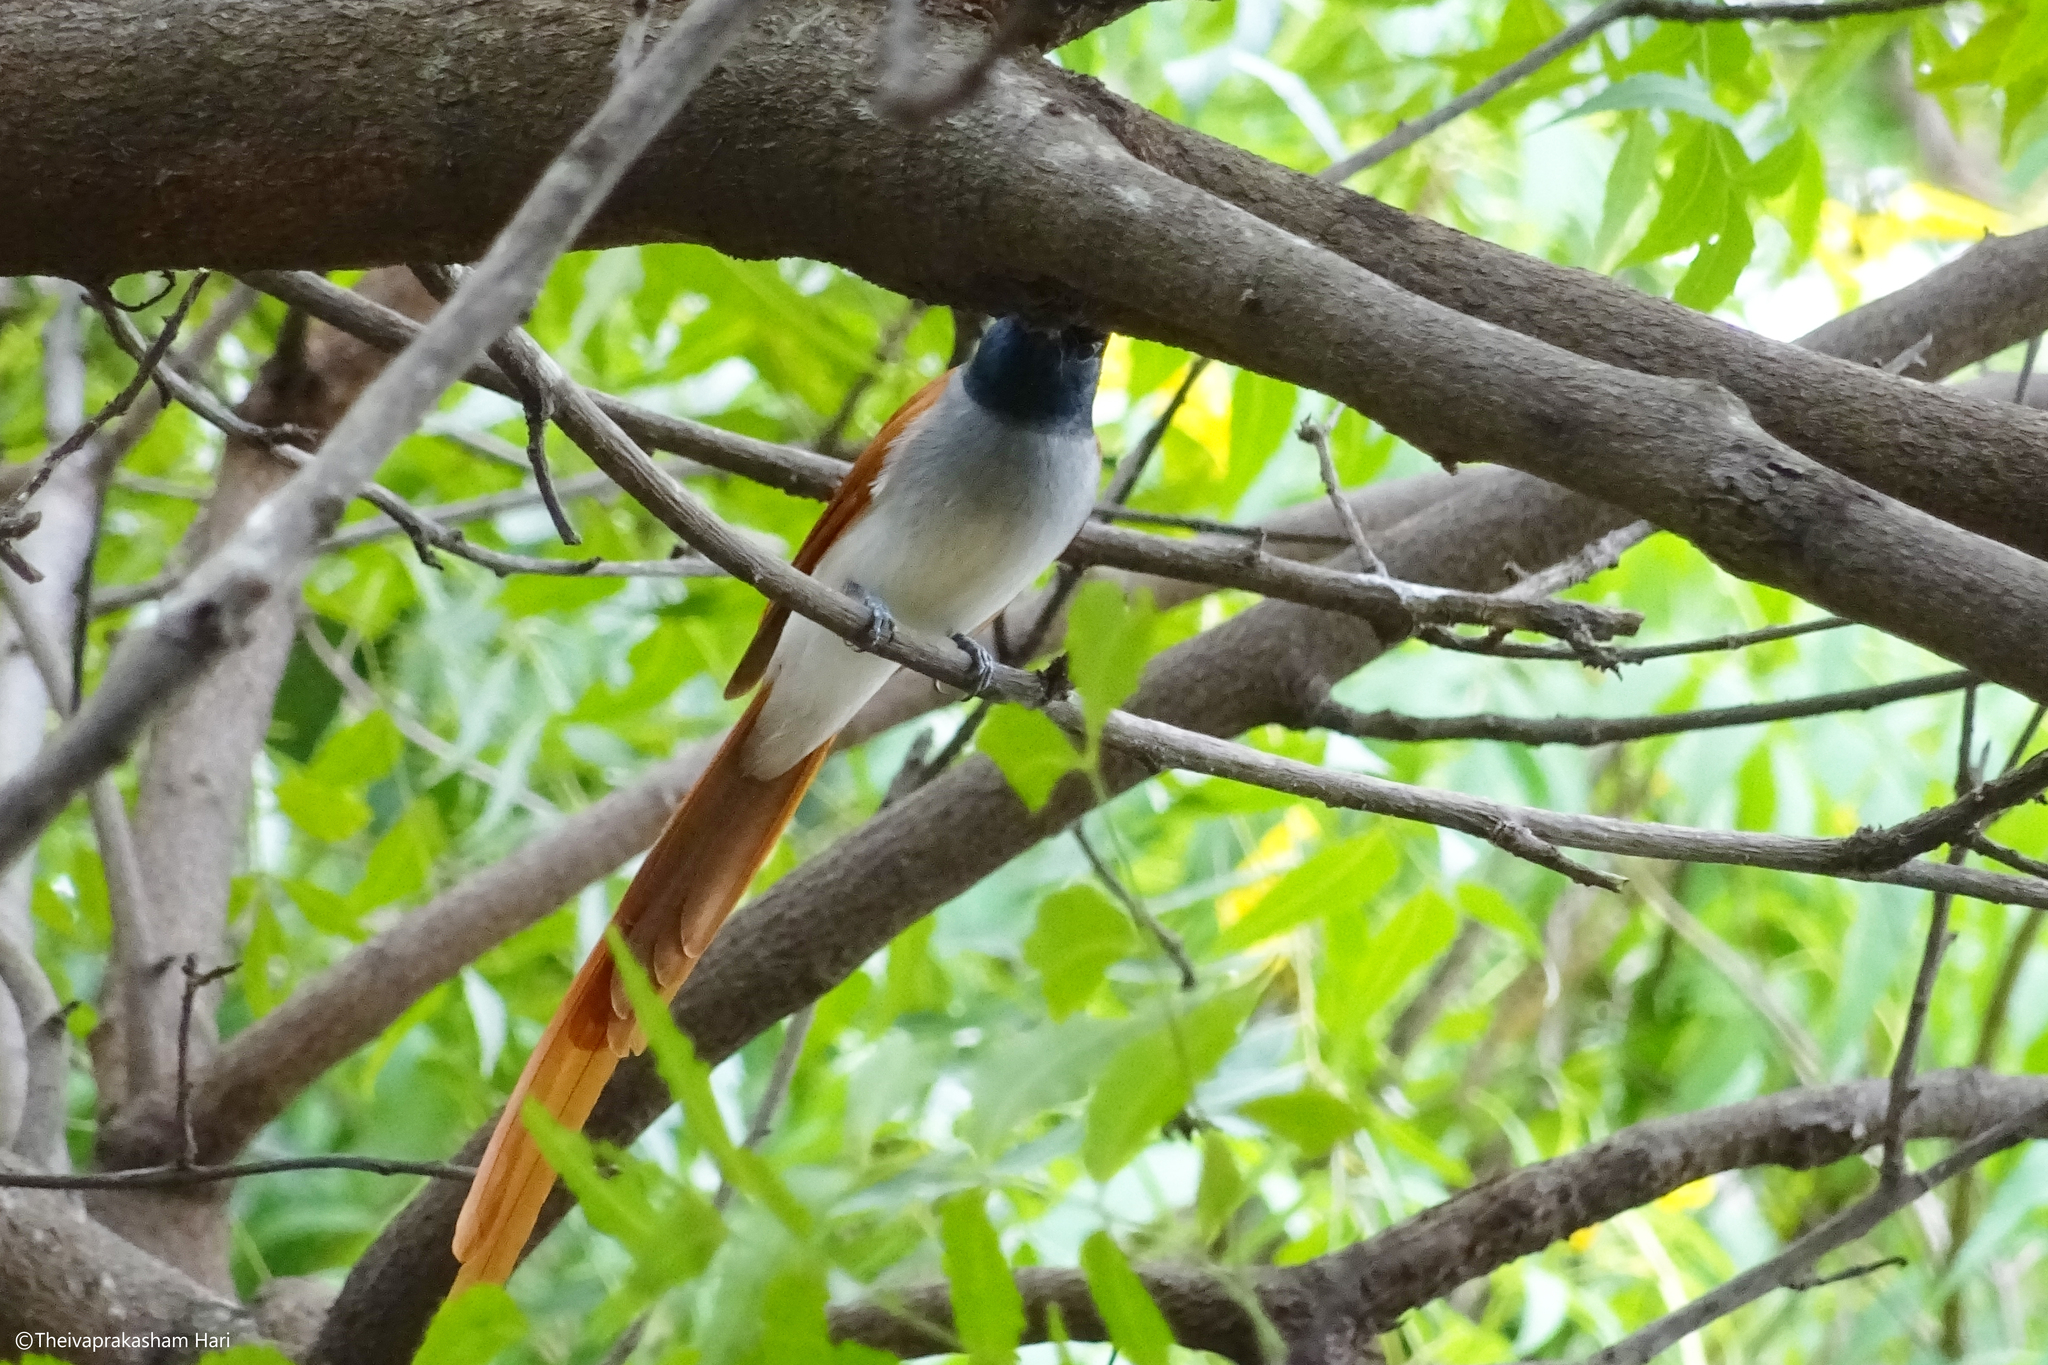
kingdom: Animalia
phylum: Chordata
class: Aves
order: Passeriformes
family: Monarchidae
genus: Terpsiphone
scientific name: Terpsiphone paradisi
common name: Indian paradise flycatcher
